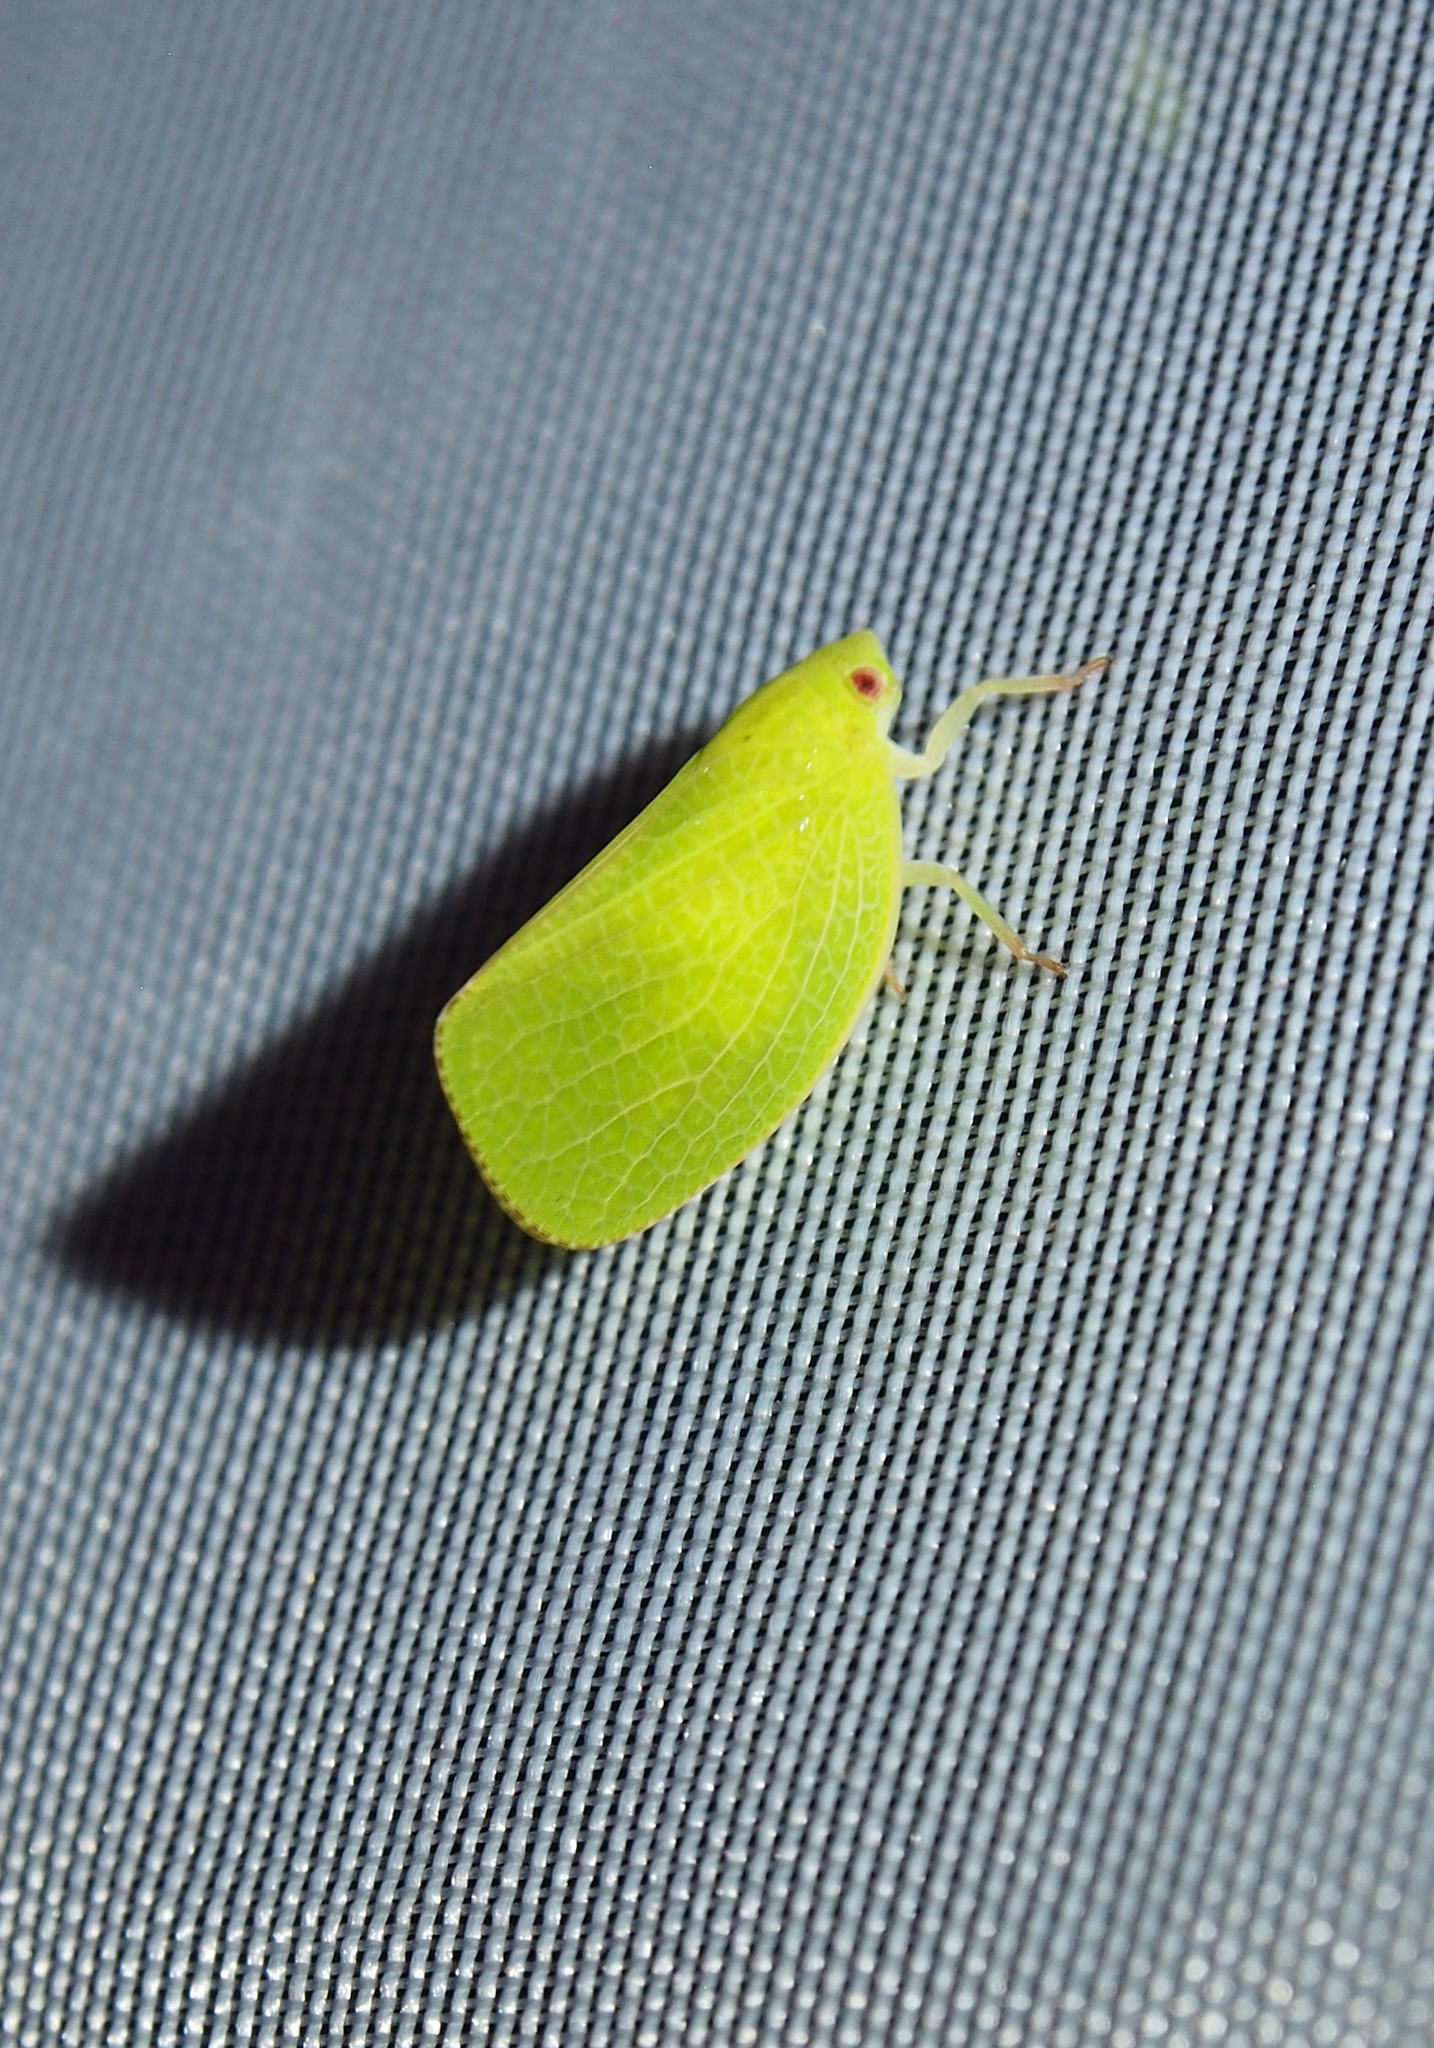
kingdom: Animalia
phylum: Arthropoda
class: Insecta
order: Hemiptera
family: Acanaloniidae
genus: Acanalonia
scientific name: Acanalonia conica
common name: Green cone-headed planthopper
